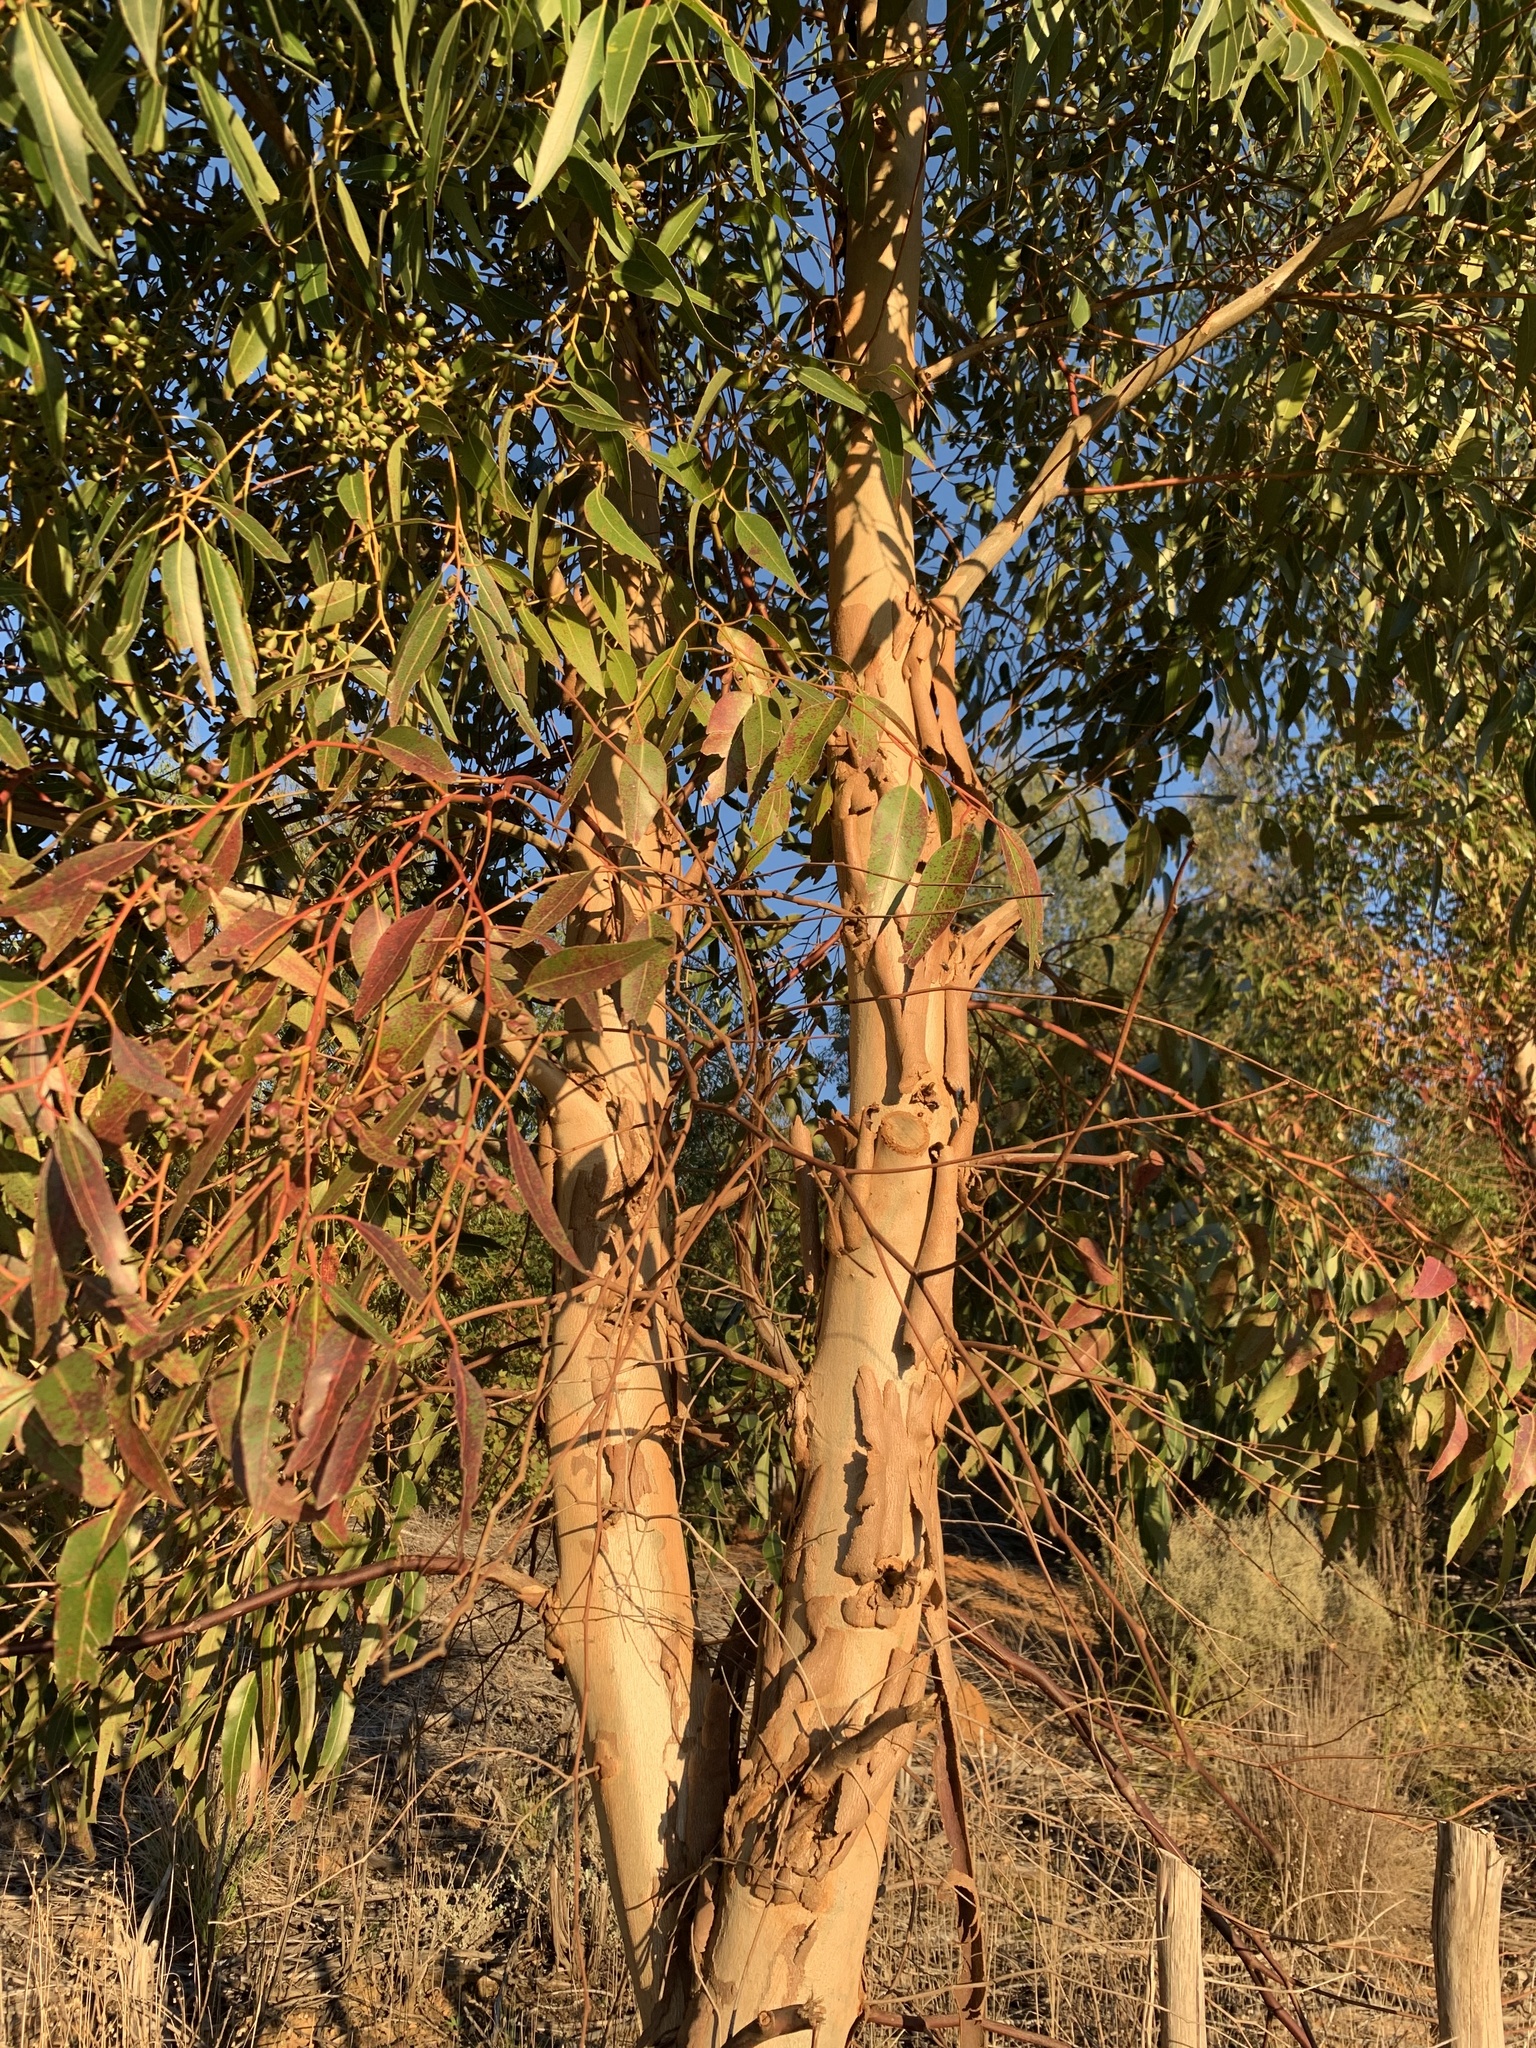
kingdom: Plantae
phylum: Tracheophyta
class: Magnoliopsida
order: Myrtales
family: Myrtaceae
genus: Eucalyptus
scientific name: Eucalyptus cladocalyx
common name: Sugargum
